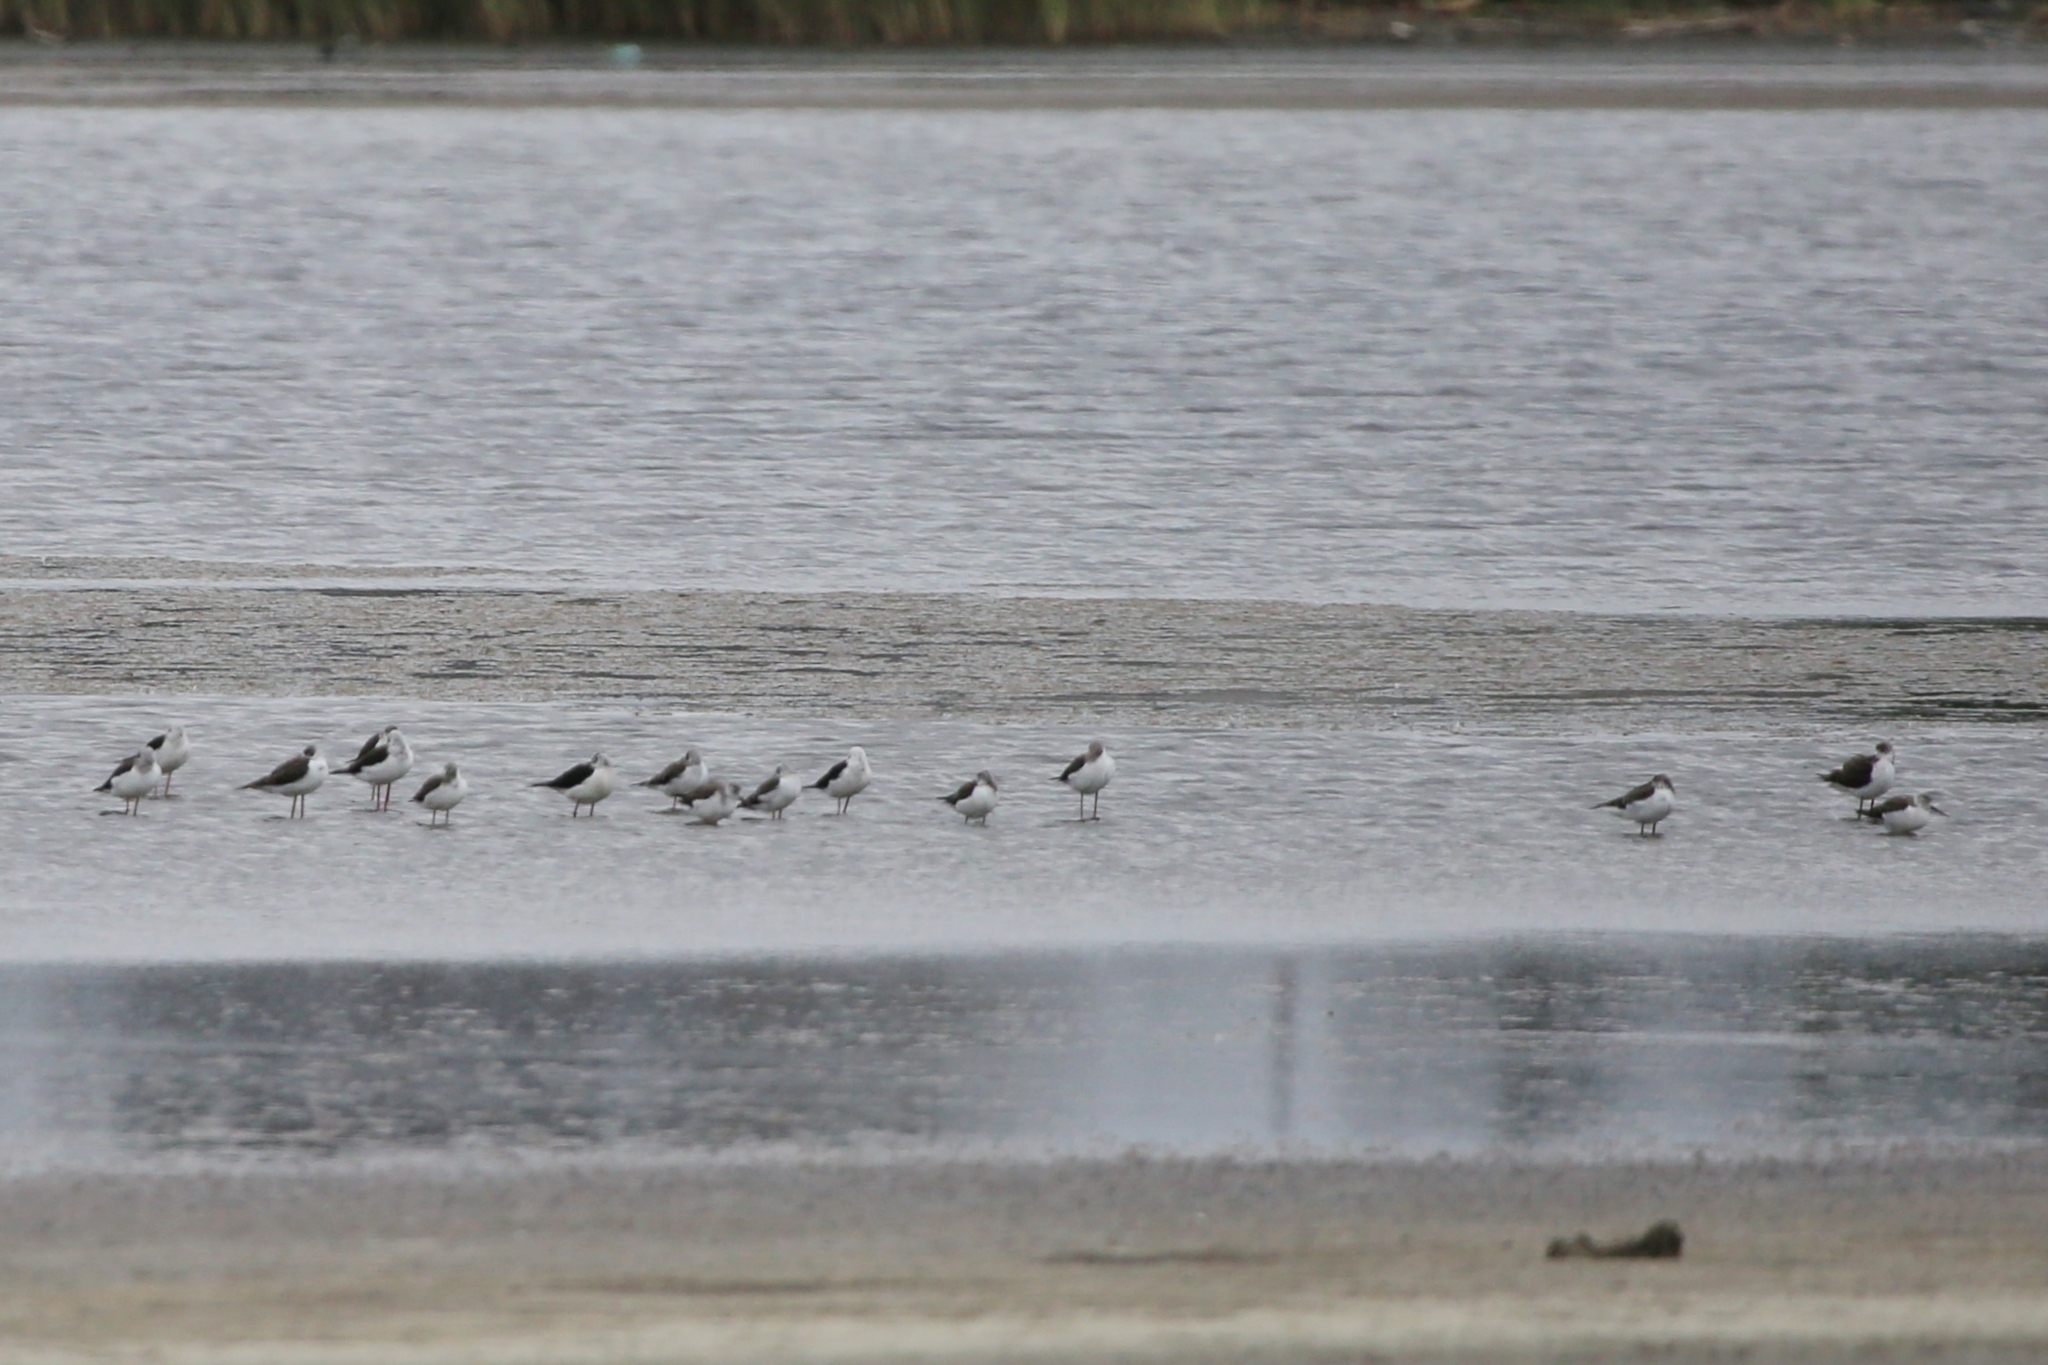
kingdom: Animalia
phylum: Chordata
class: Aves
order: Charadriiformes
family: Recurvirostridae
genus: Himantopus
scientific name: Himantopus himantopus
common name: Black-winged stilt
